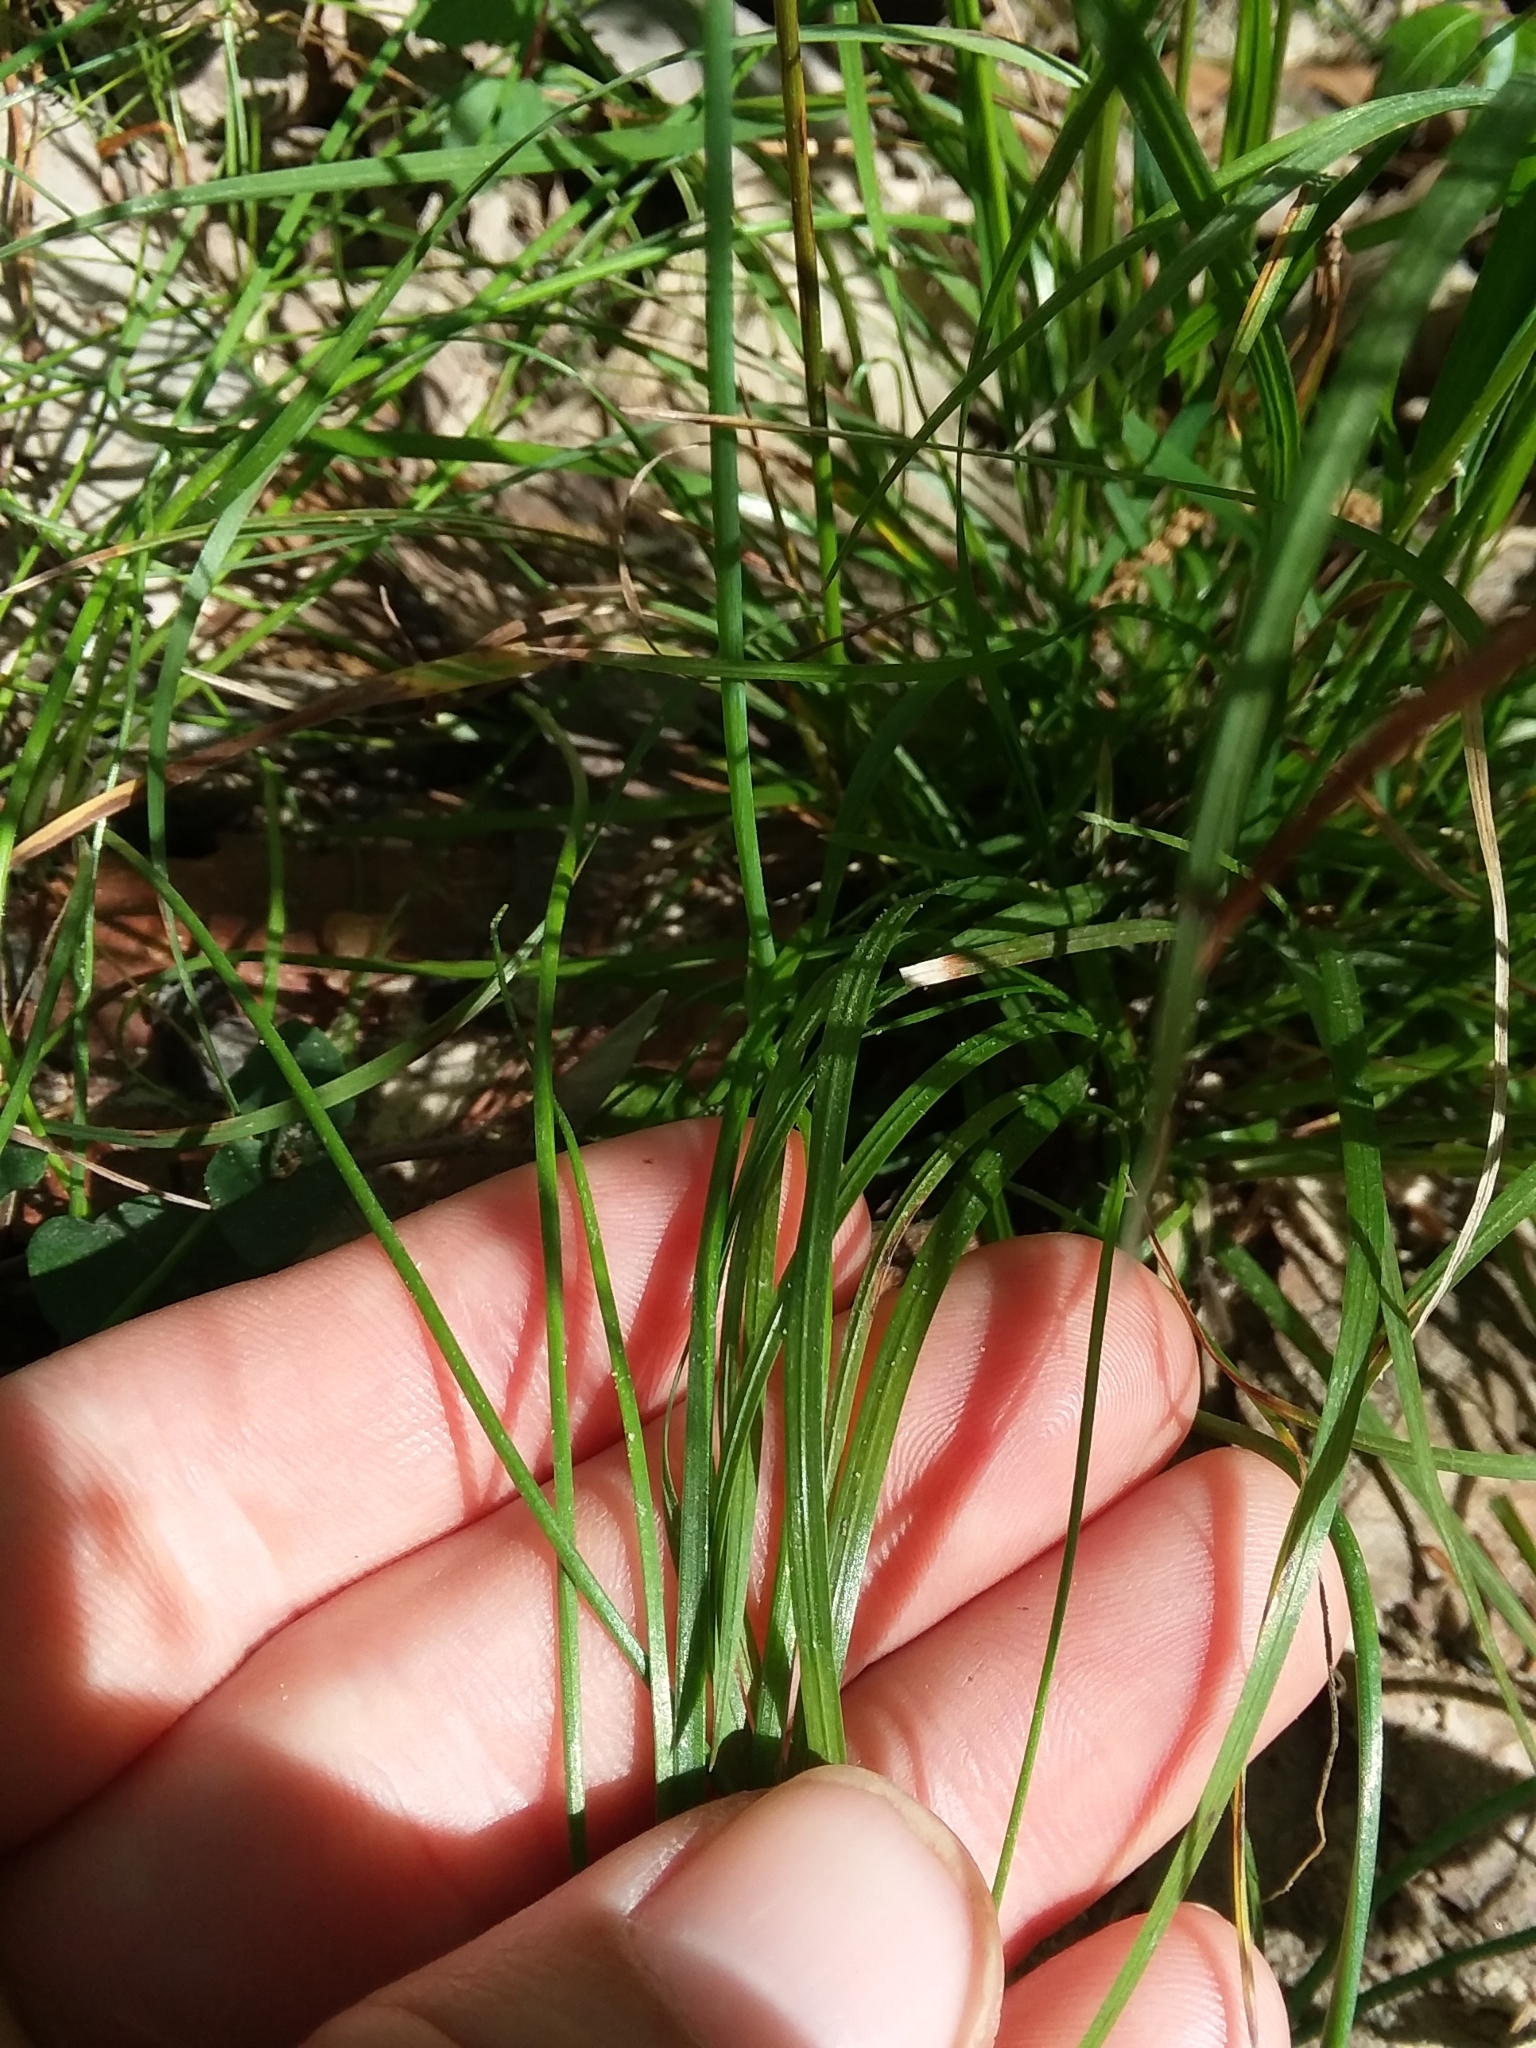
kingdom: Plantae
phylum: Tracheophyta
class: Liliopsida
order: Poales
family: Poaceae
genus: Poa
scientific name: Poa autumnalis
